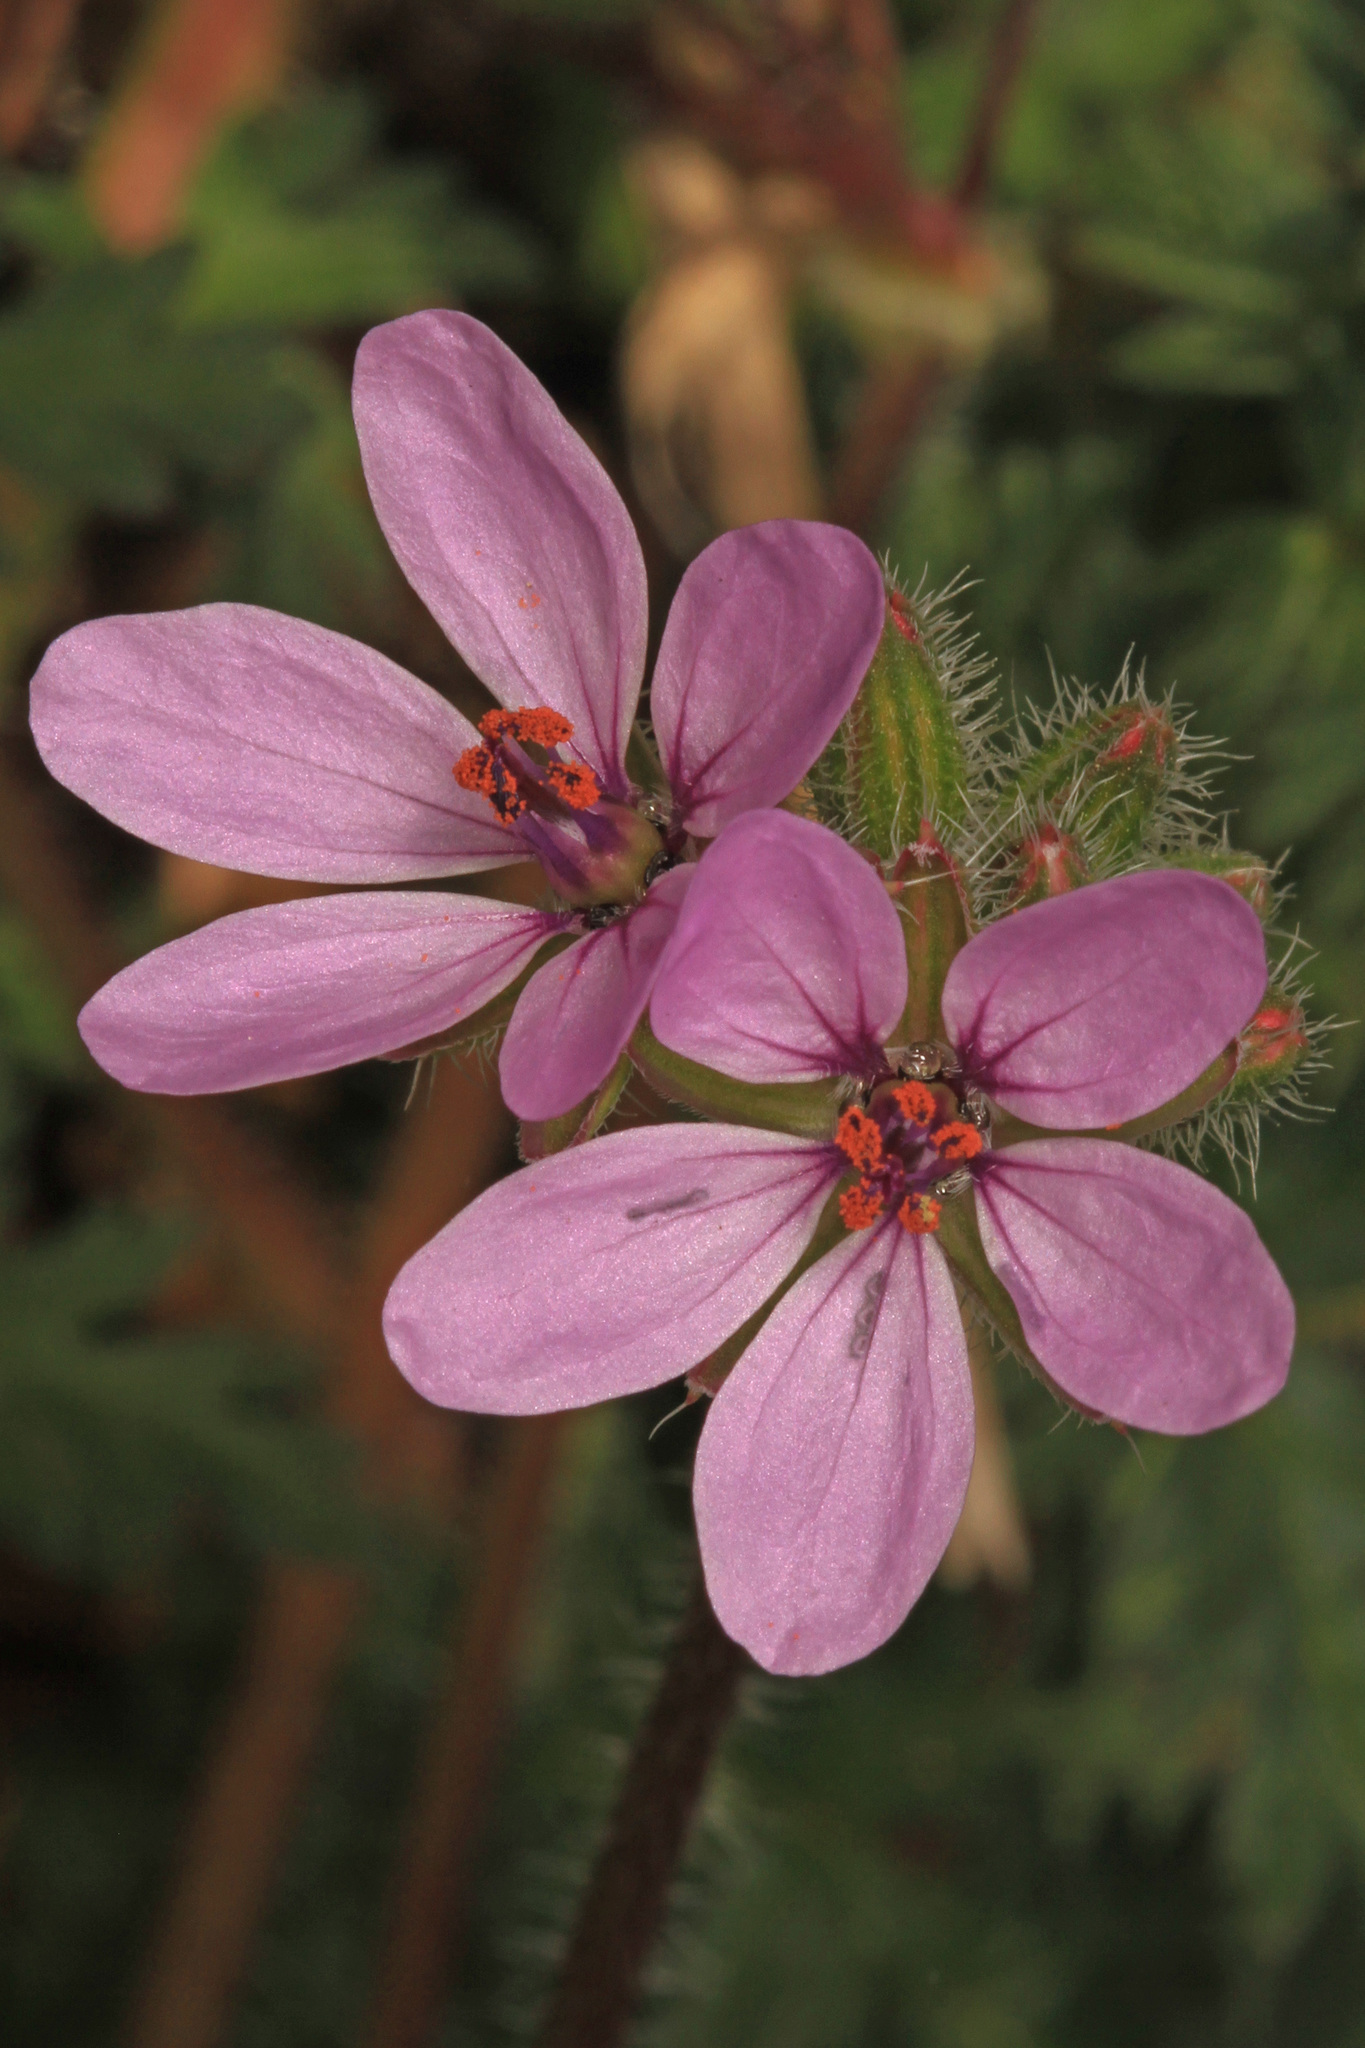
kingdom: Plantae
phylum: Tracheophyta
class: Magnoliopsida
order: Geraniales
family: Geraniaceae
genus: Erodium
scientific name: Erodium cicutarium
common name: Common stork's-bill
